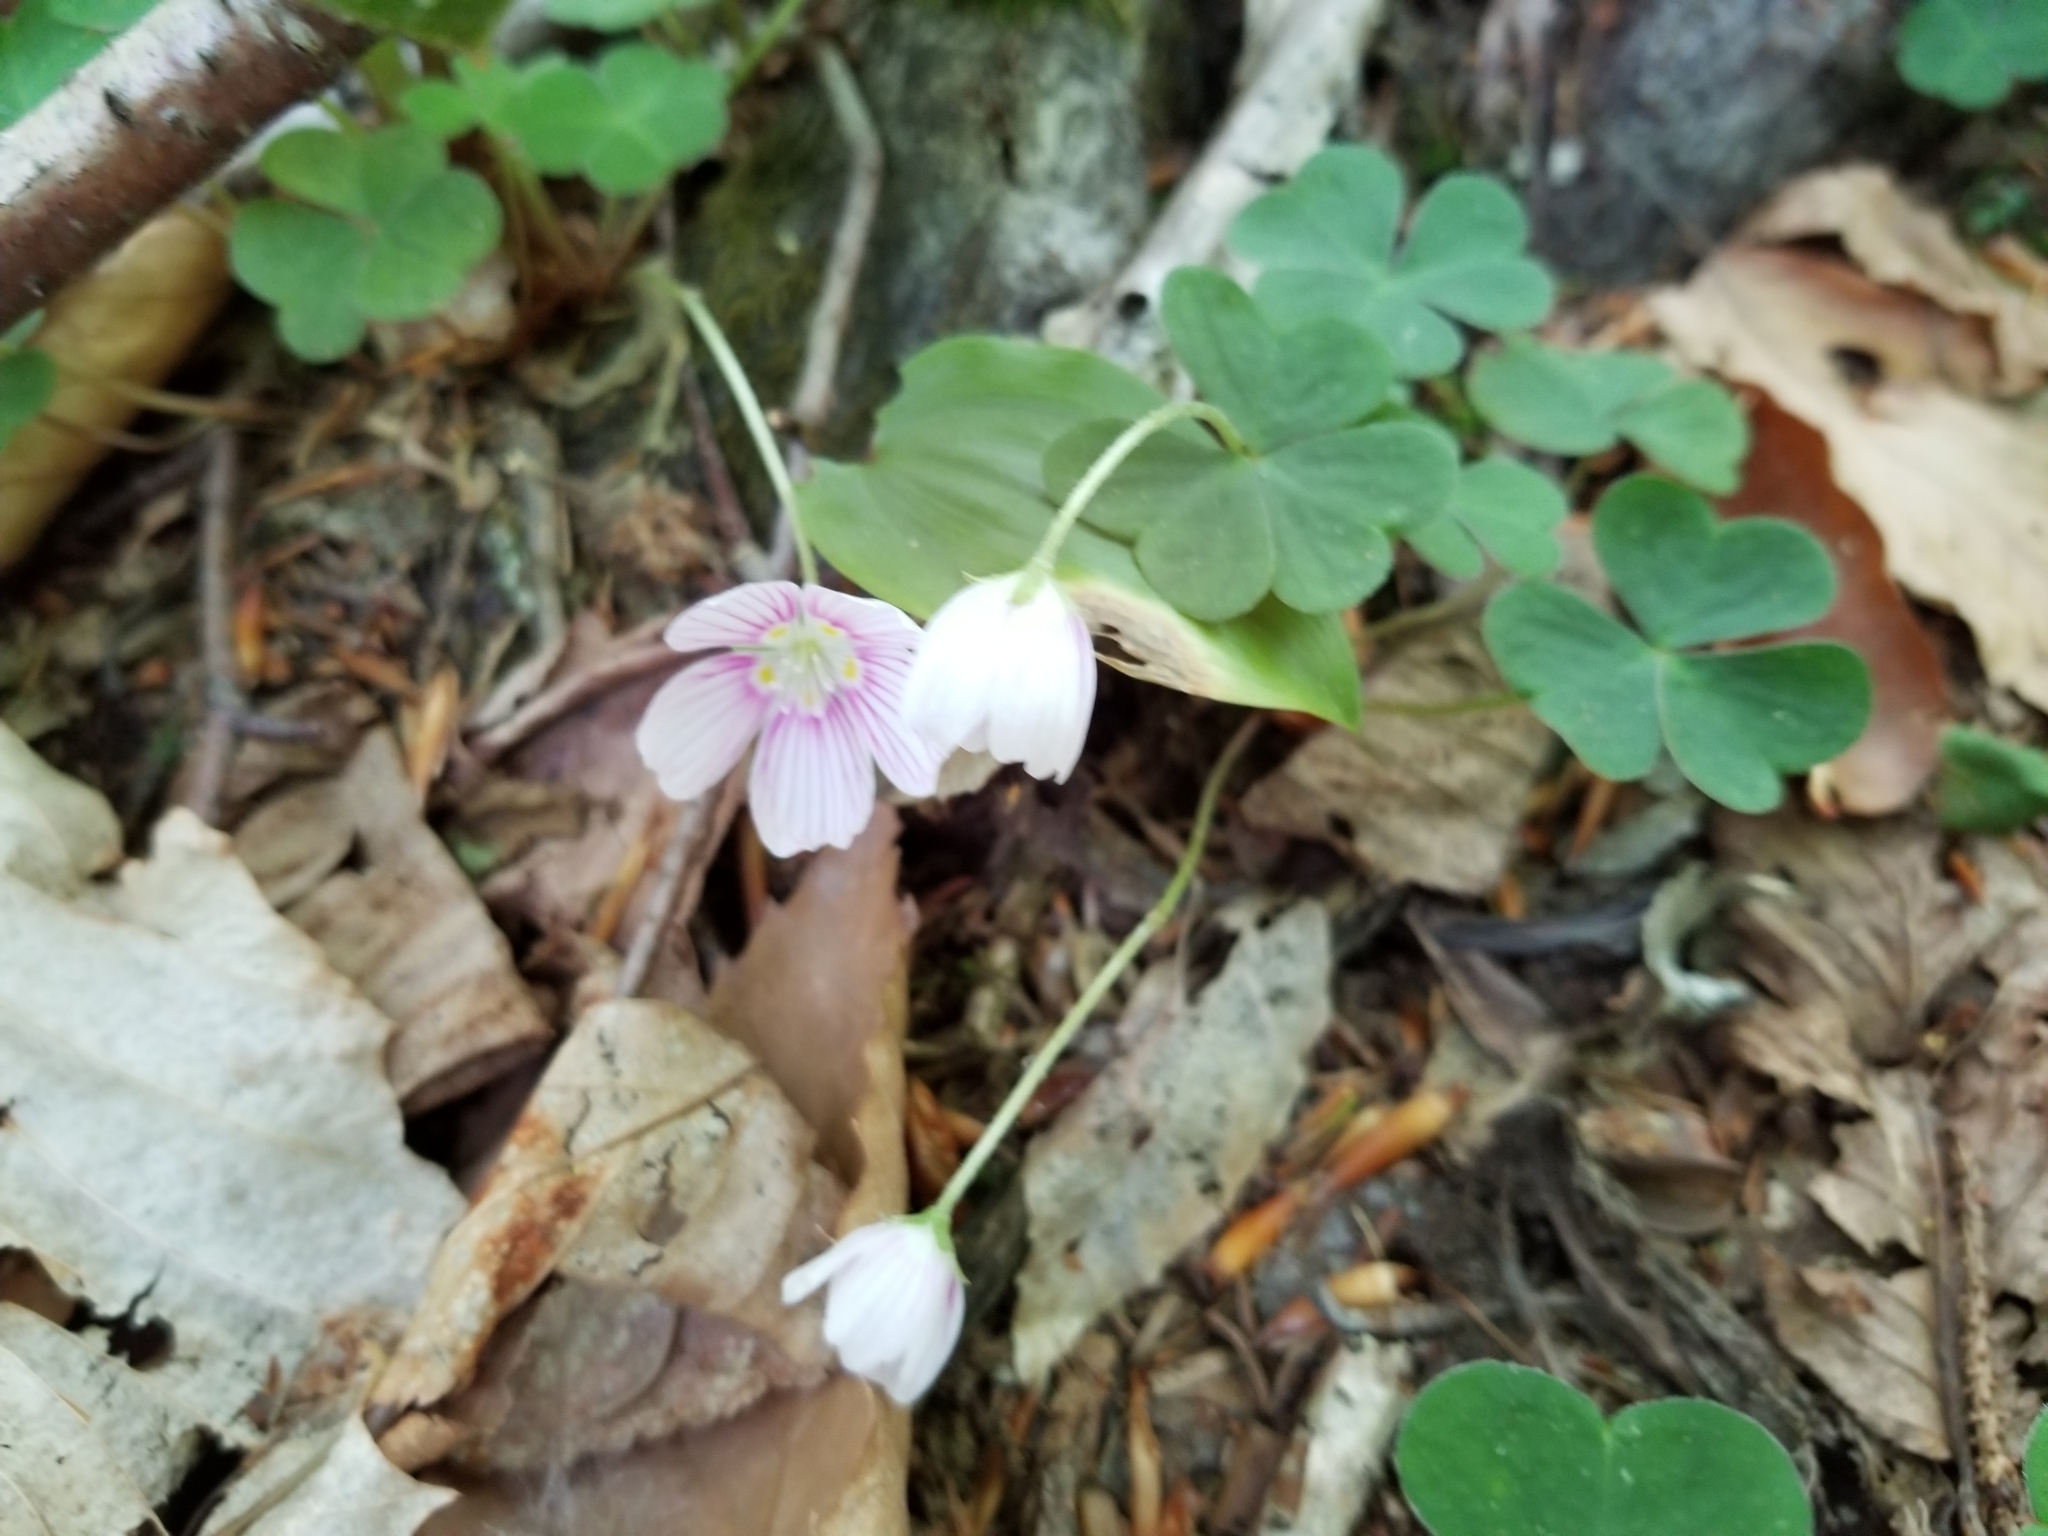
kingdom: Plantae
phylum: Tracheophyta
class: Magnoliopsida
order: Oxalidales
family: Oxalidaceae
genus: Oxalis
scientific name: Oxalis montana
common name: American wood-sorrel
